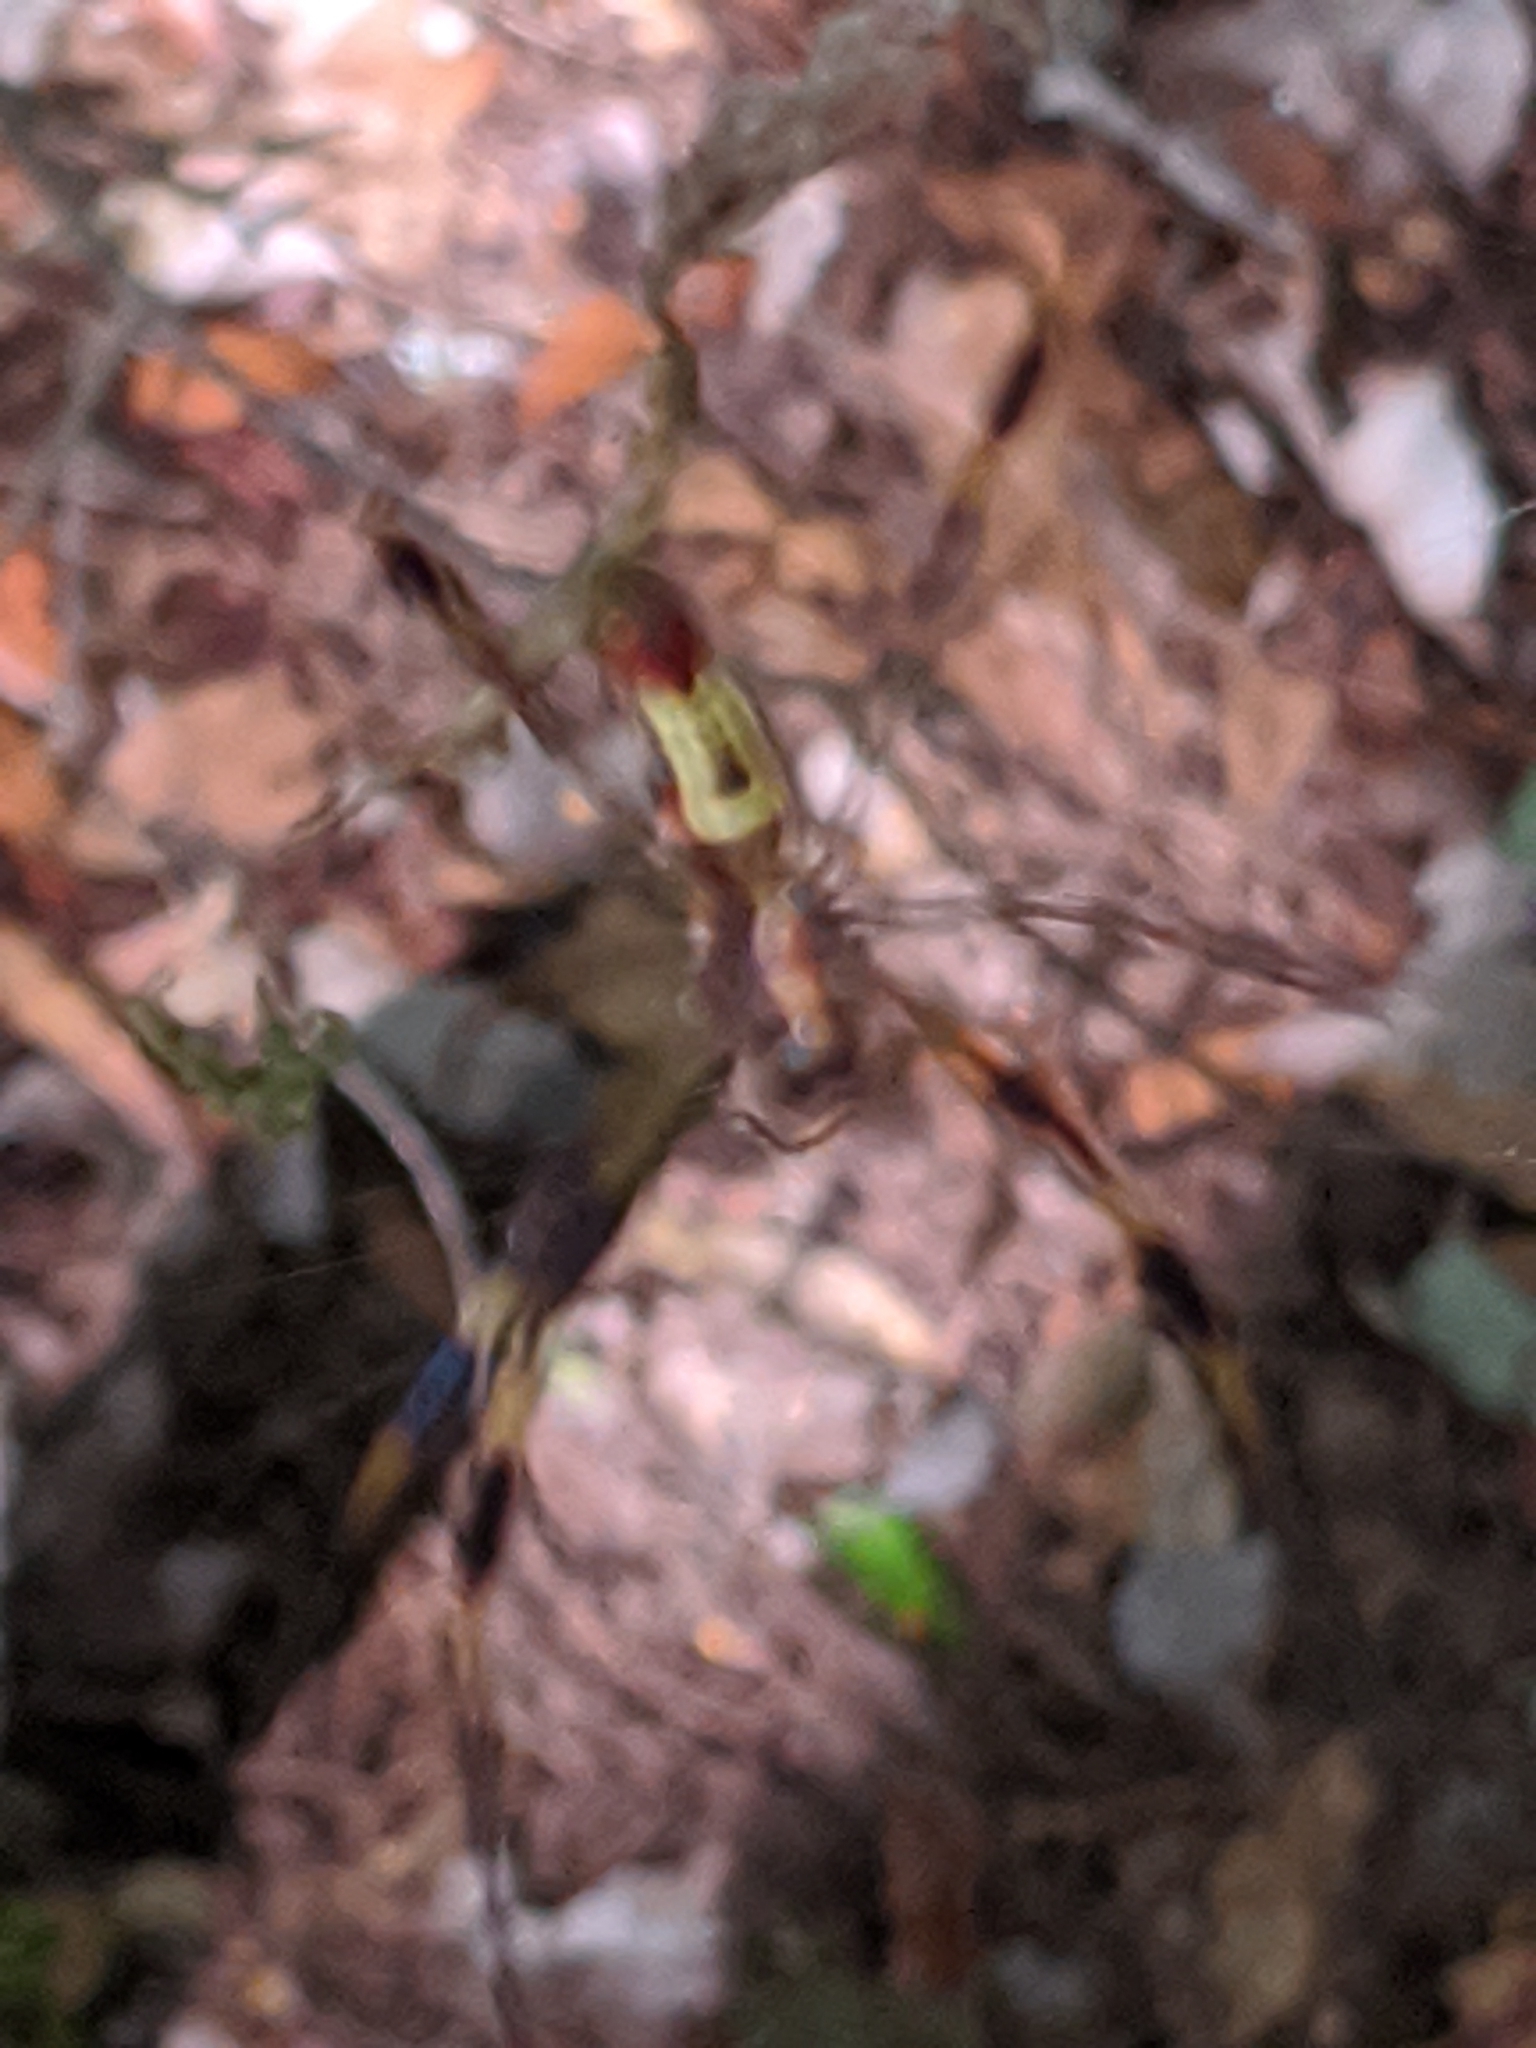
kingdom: Animalia
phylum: Arthropoda
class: Arachnida
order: Araneae
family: Araneidae
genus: Trichonephila
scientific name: Trichonephila clavipes
